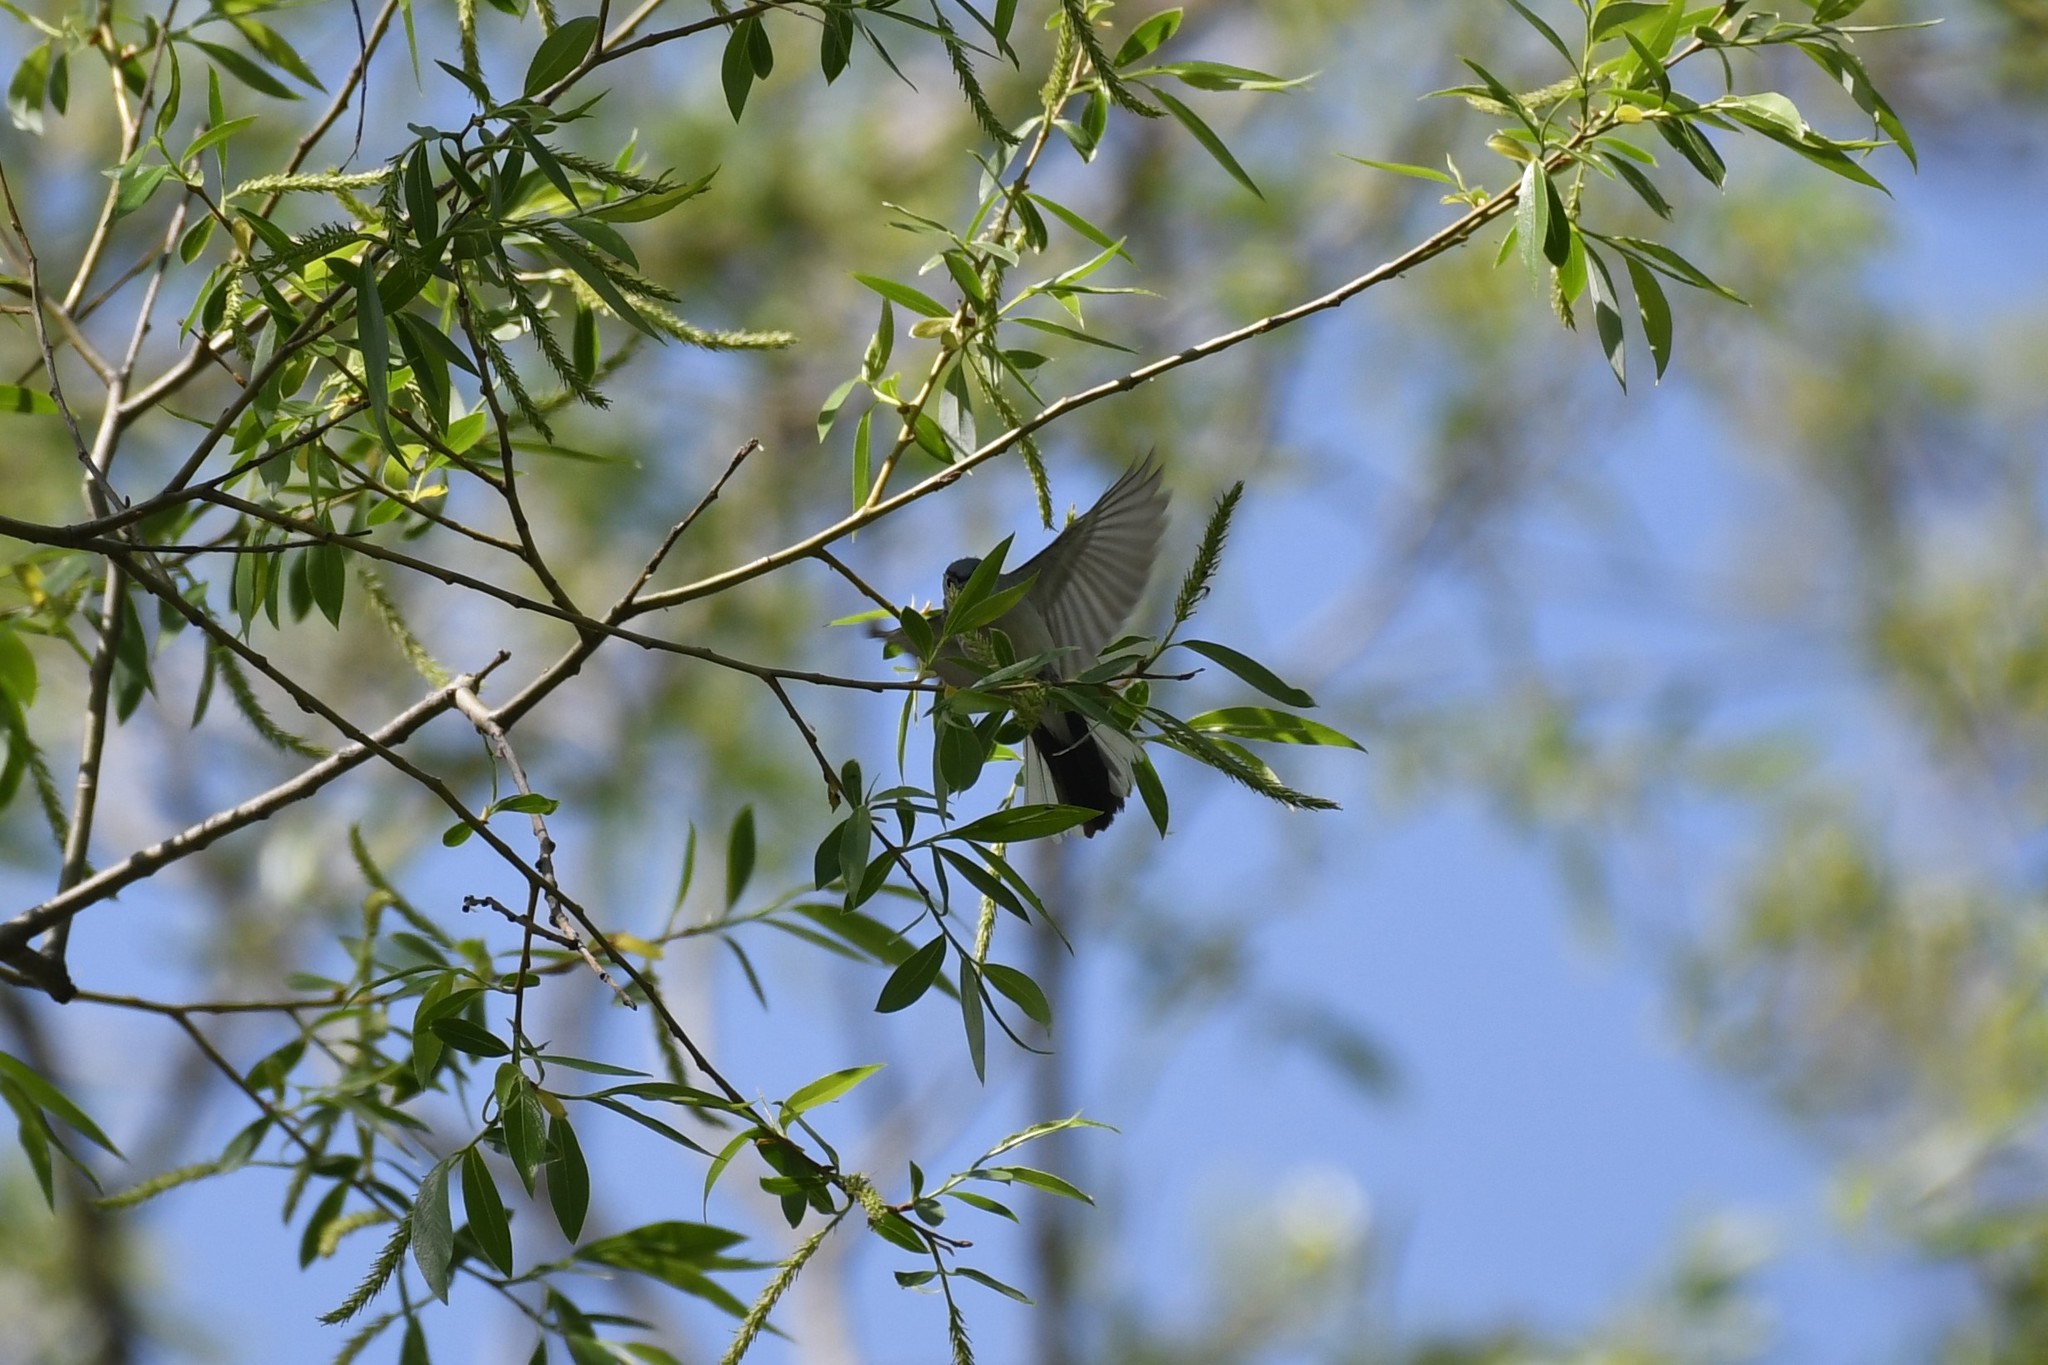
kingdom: Animalia
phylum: Chordata
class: Aves
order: Passeriformes
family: Polioptilidae
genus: Polioptila
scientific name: Polioptila caerulea
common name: Blue-gray gnatcatcher
